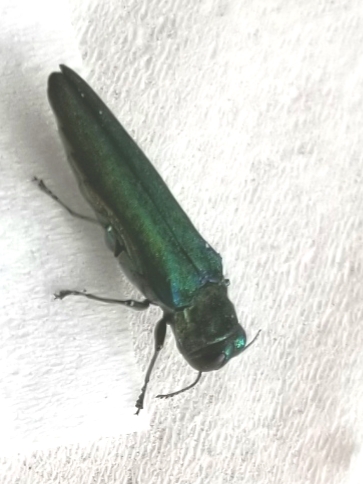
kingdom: Animalia
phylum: Arthropoda
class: Insecta
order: Coleoptera
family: Buprestidae
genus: Agrilus
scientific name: Agrilus planipennis
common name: Emerald ash borer
